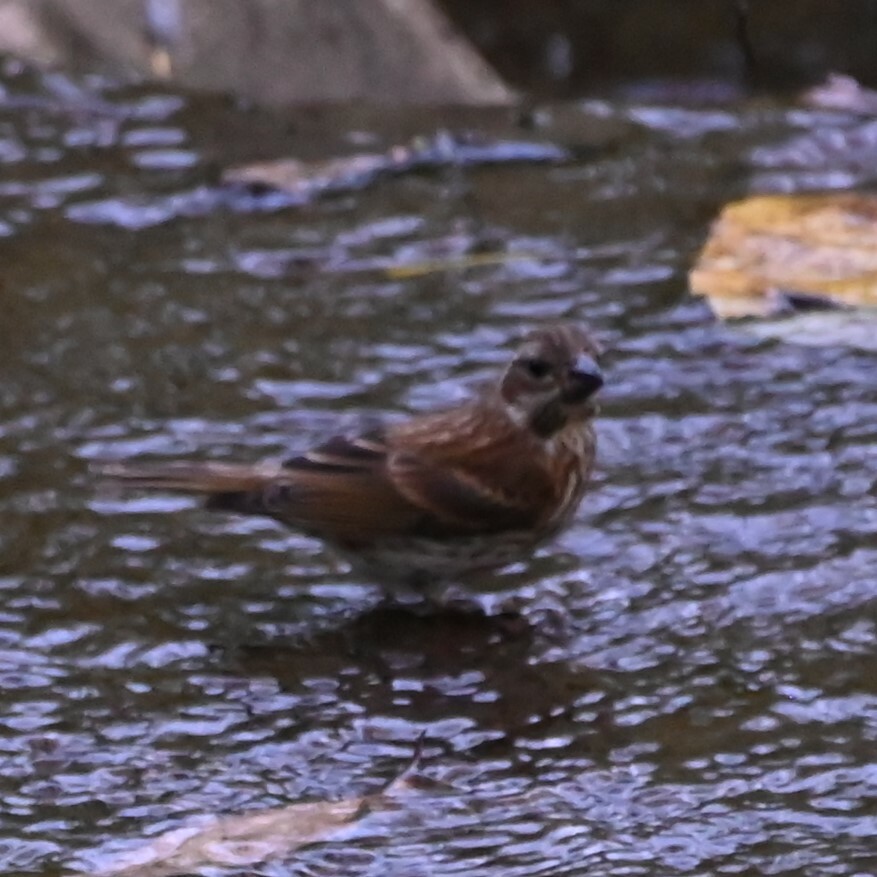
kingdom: Animalia
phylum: Chordata
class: Aves
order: Passeriformes
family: Fringillidae
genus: Haemorhous
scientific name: Haemorhous purpureus
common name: Purple finch
